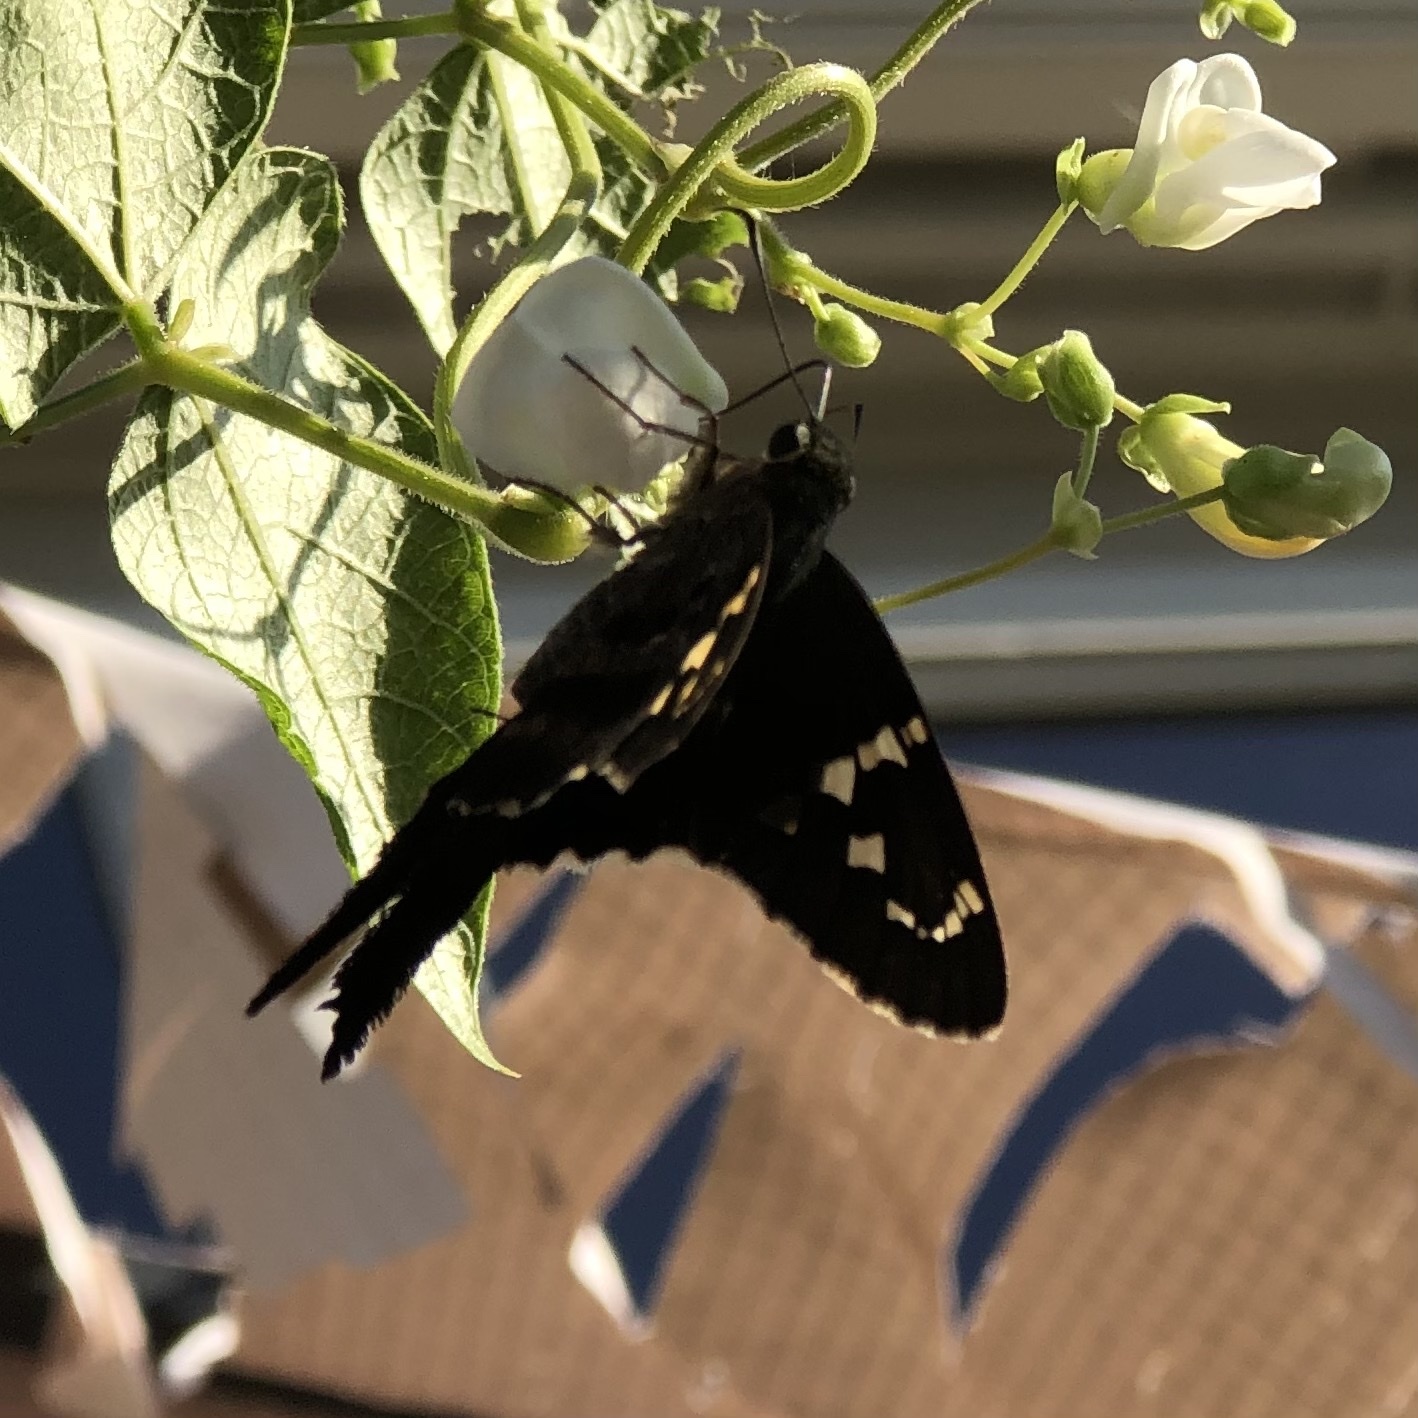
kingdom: Animalia
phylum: Arthropoda
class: Insecta
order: Lepidoptera
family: Hesperiidae
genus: Urbanus
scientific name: Urbanus proteus
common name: Long-tailed skipper
